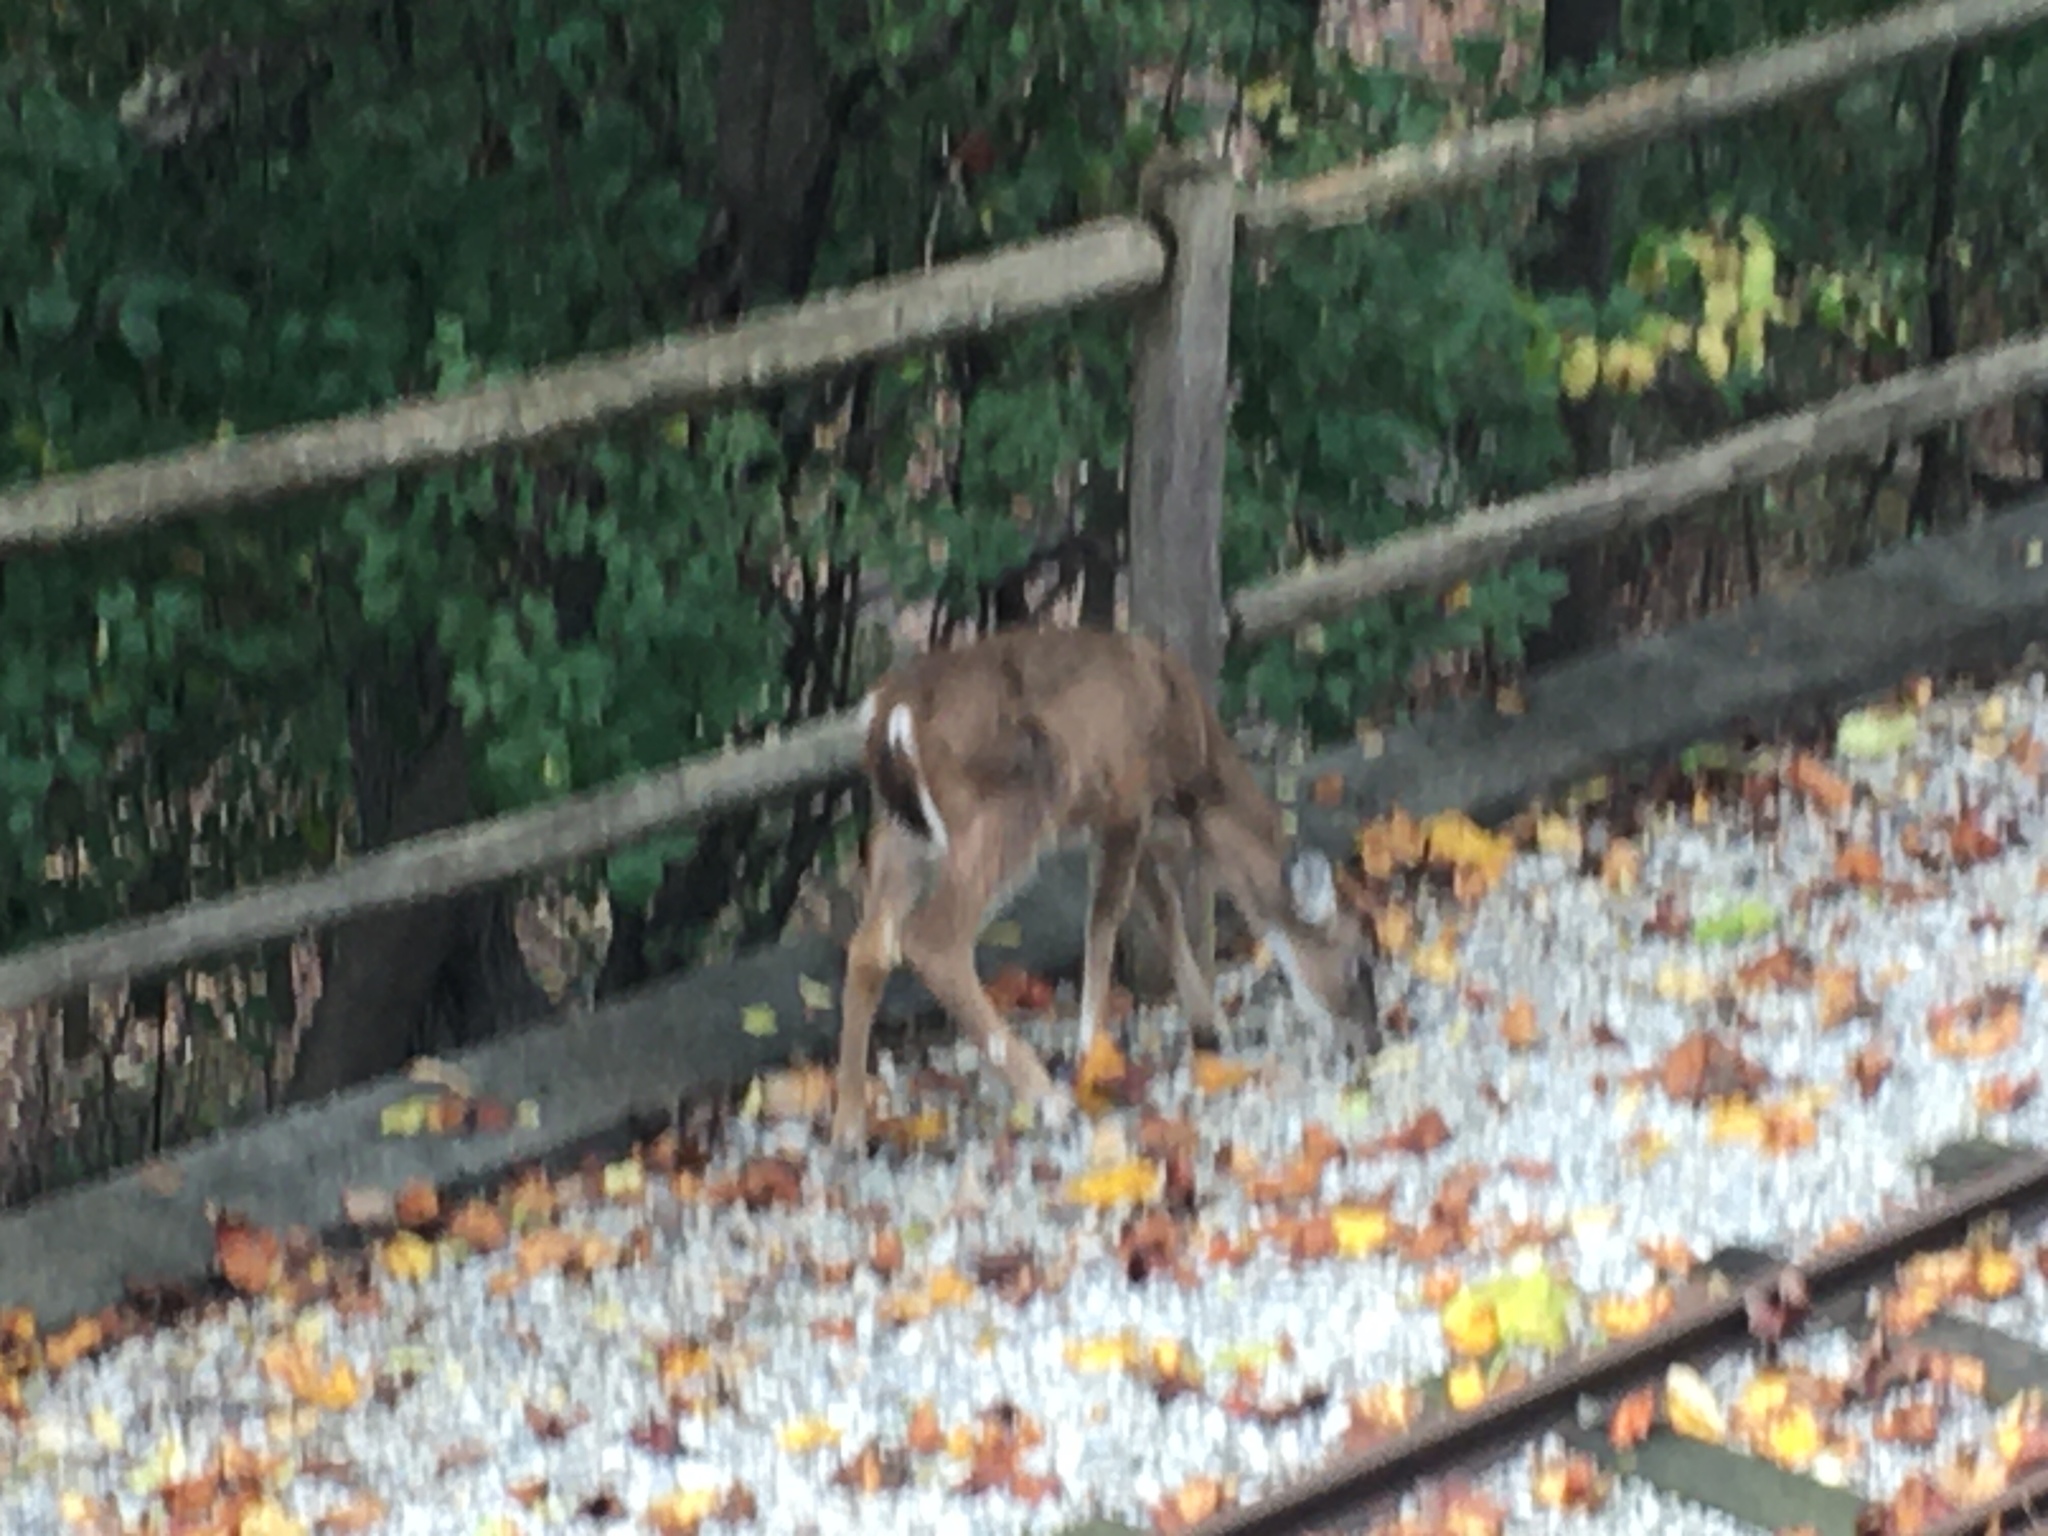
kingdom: Animalia
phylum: Chordata
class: Mammalia
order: Artiodactyla
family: Cervidae
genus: Odocoileus
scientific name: Odocoileus virginianus
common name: White-tailed deer
